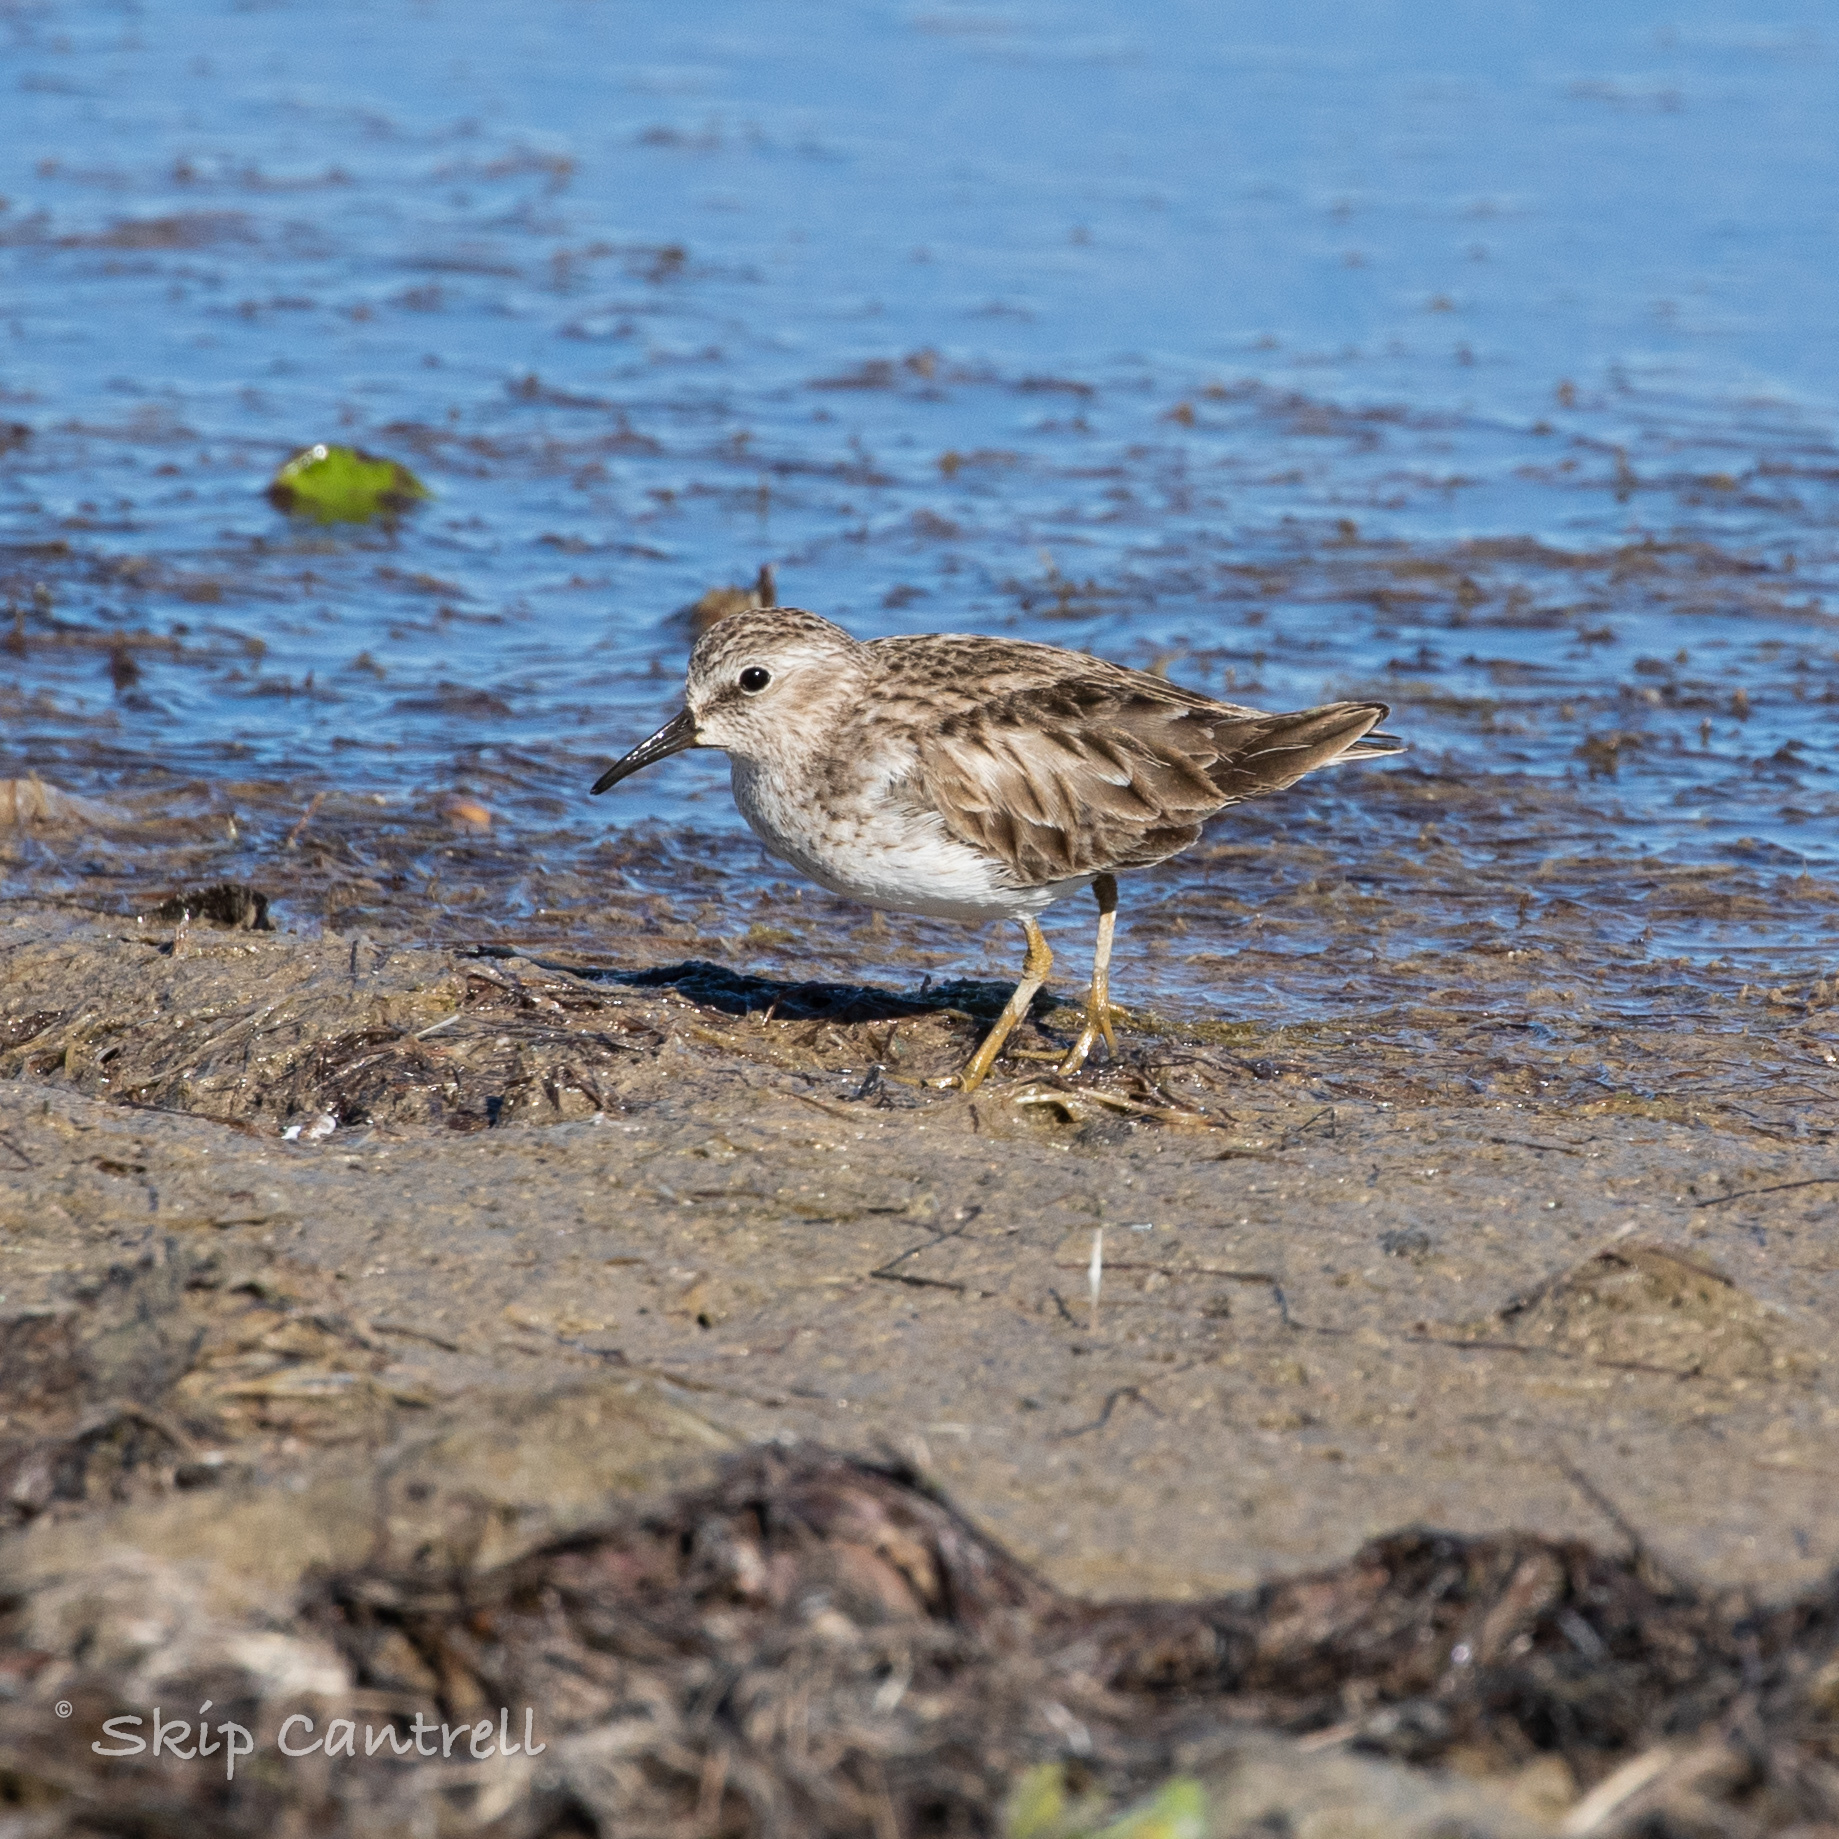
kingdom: Animalia
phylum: Chordata
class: Aves
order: Charadriiformes
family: Scolopacidae
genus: Calidris
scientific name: Calidris minutilla
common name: Least sandpiper
